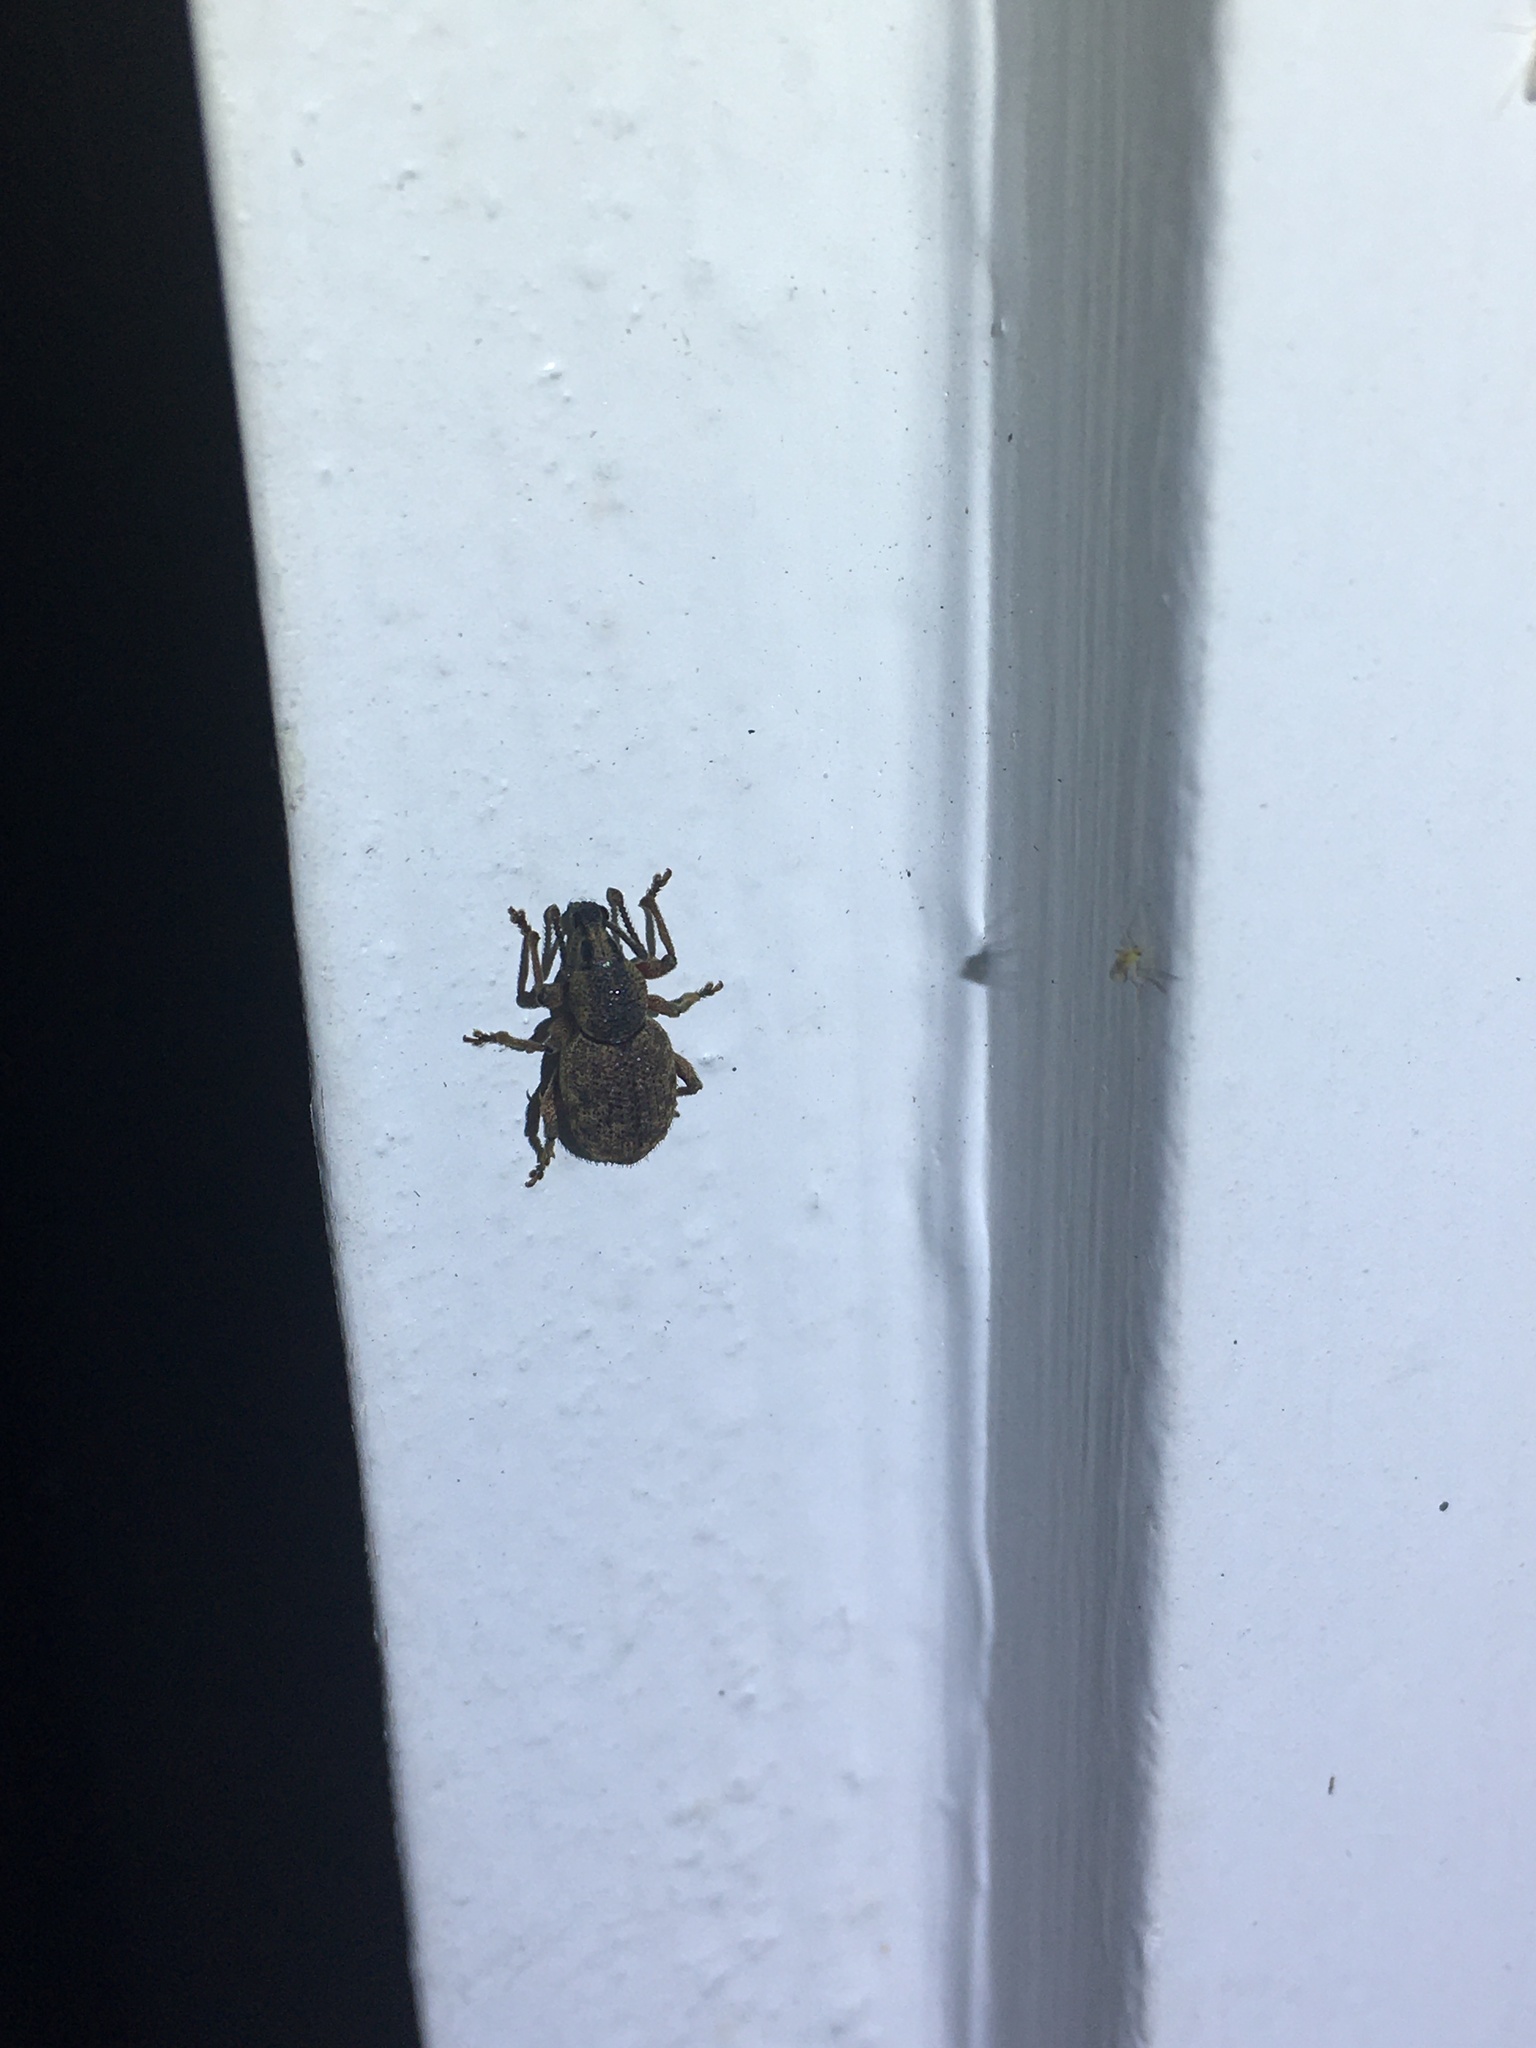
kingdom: Animalia
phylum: Arthropoda
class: Insecta
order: Coleoptera
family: Curculionidae
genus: Otiorhynchus
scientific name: Otiorhynchus singularis
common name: Clay-coloured weevil
